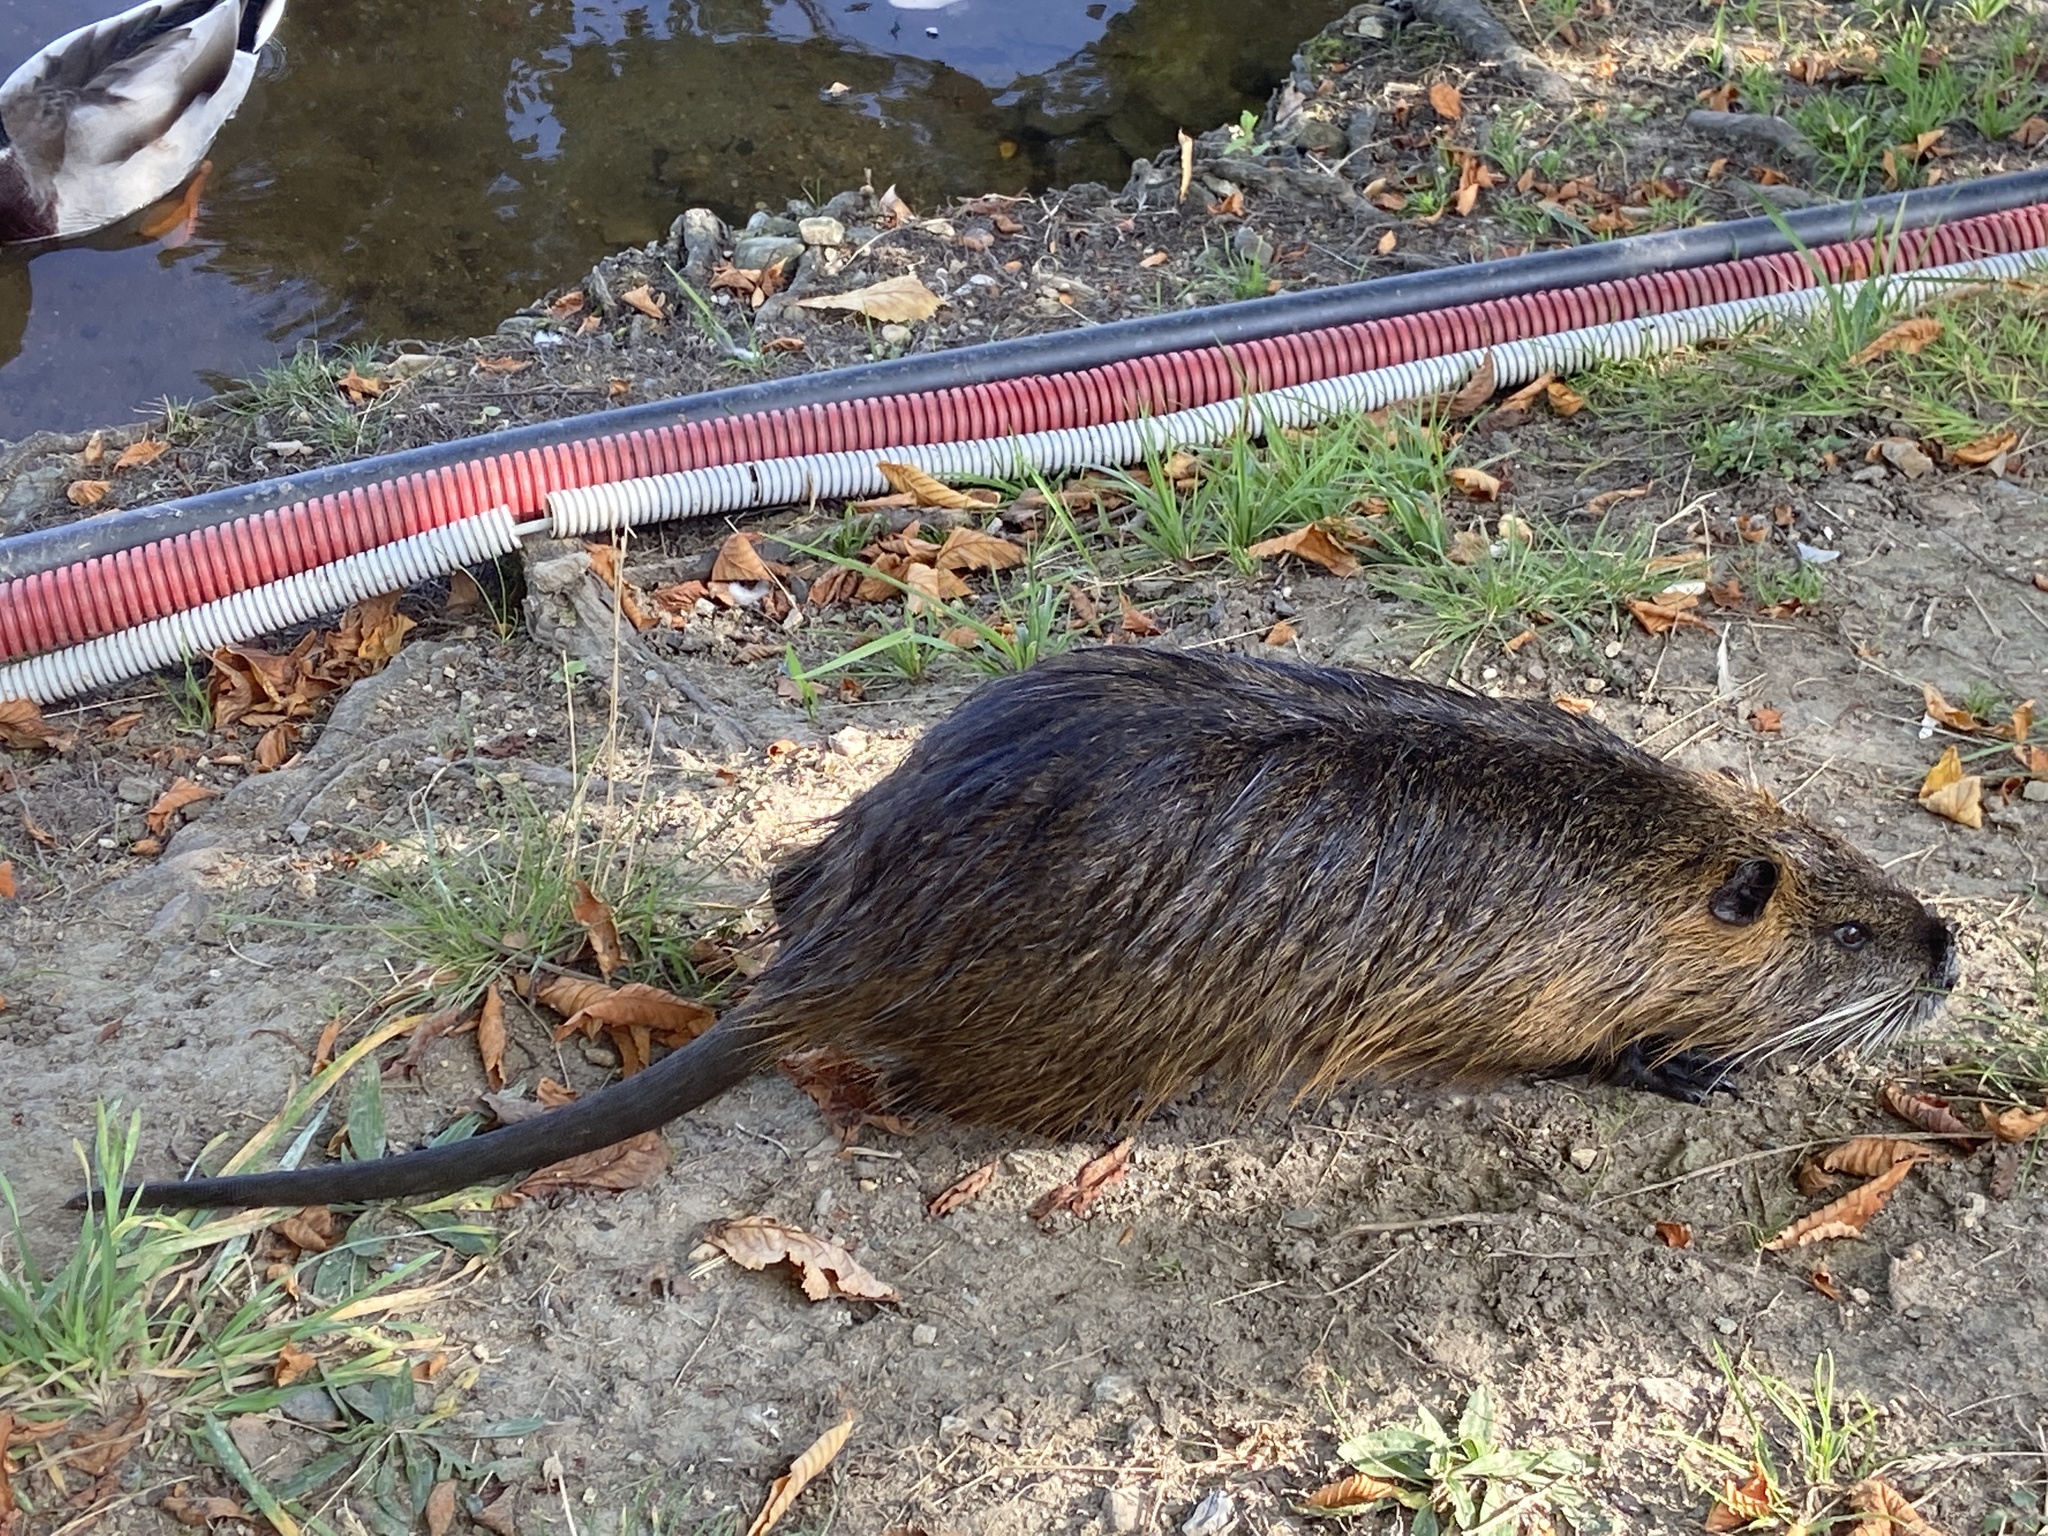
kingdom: Animalia
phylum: Chordata
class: Mammalia
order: Rodentia
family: Myocastoridae
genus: Myocastor
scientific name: Myocastor coypus
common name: Coypu
